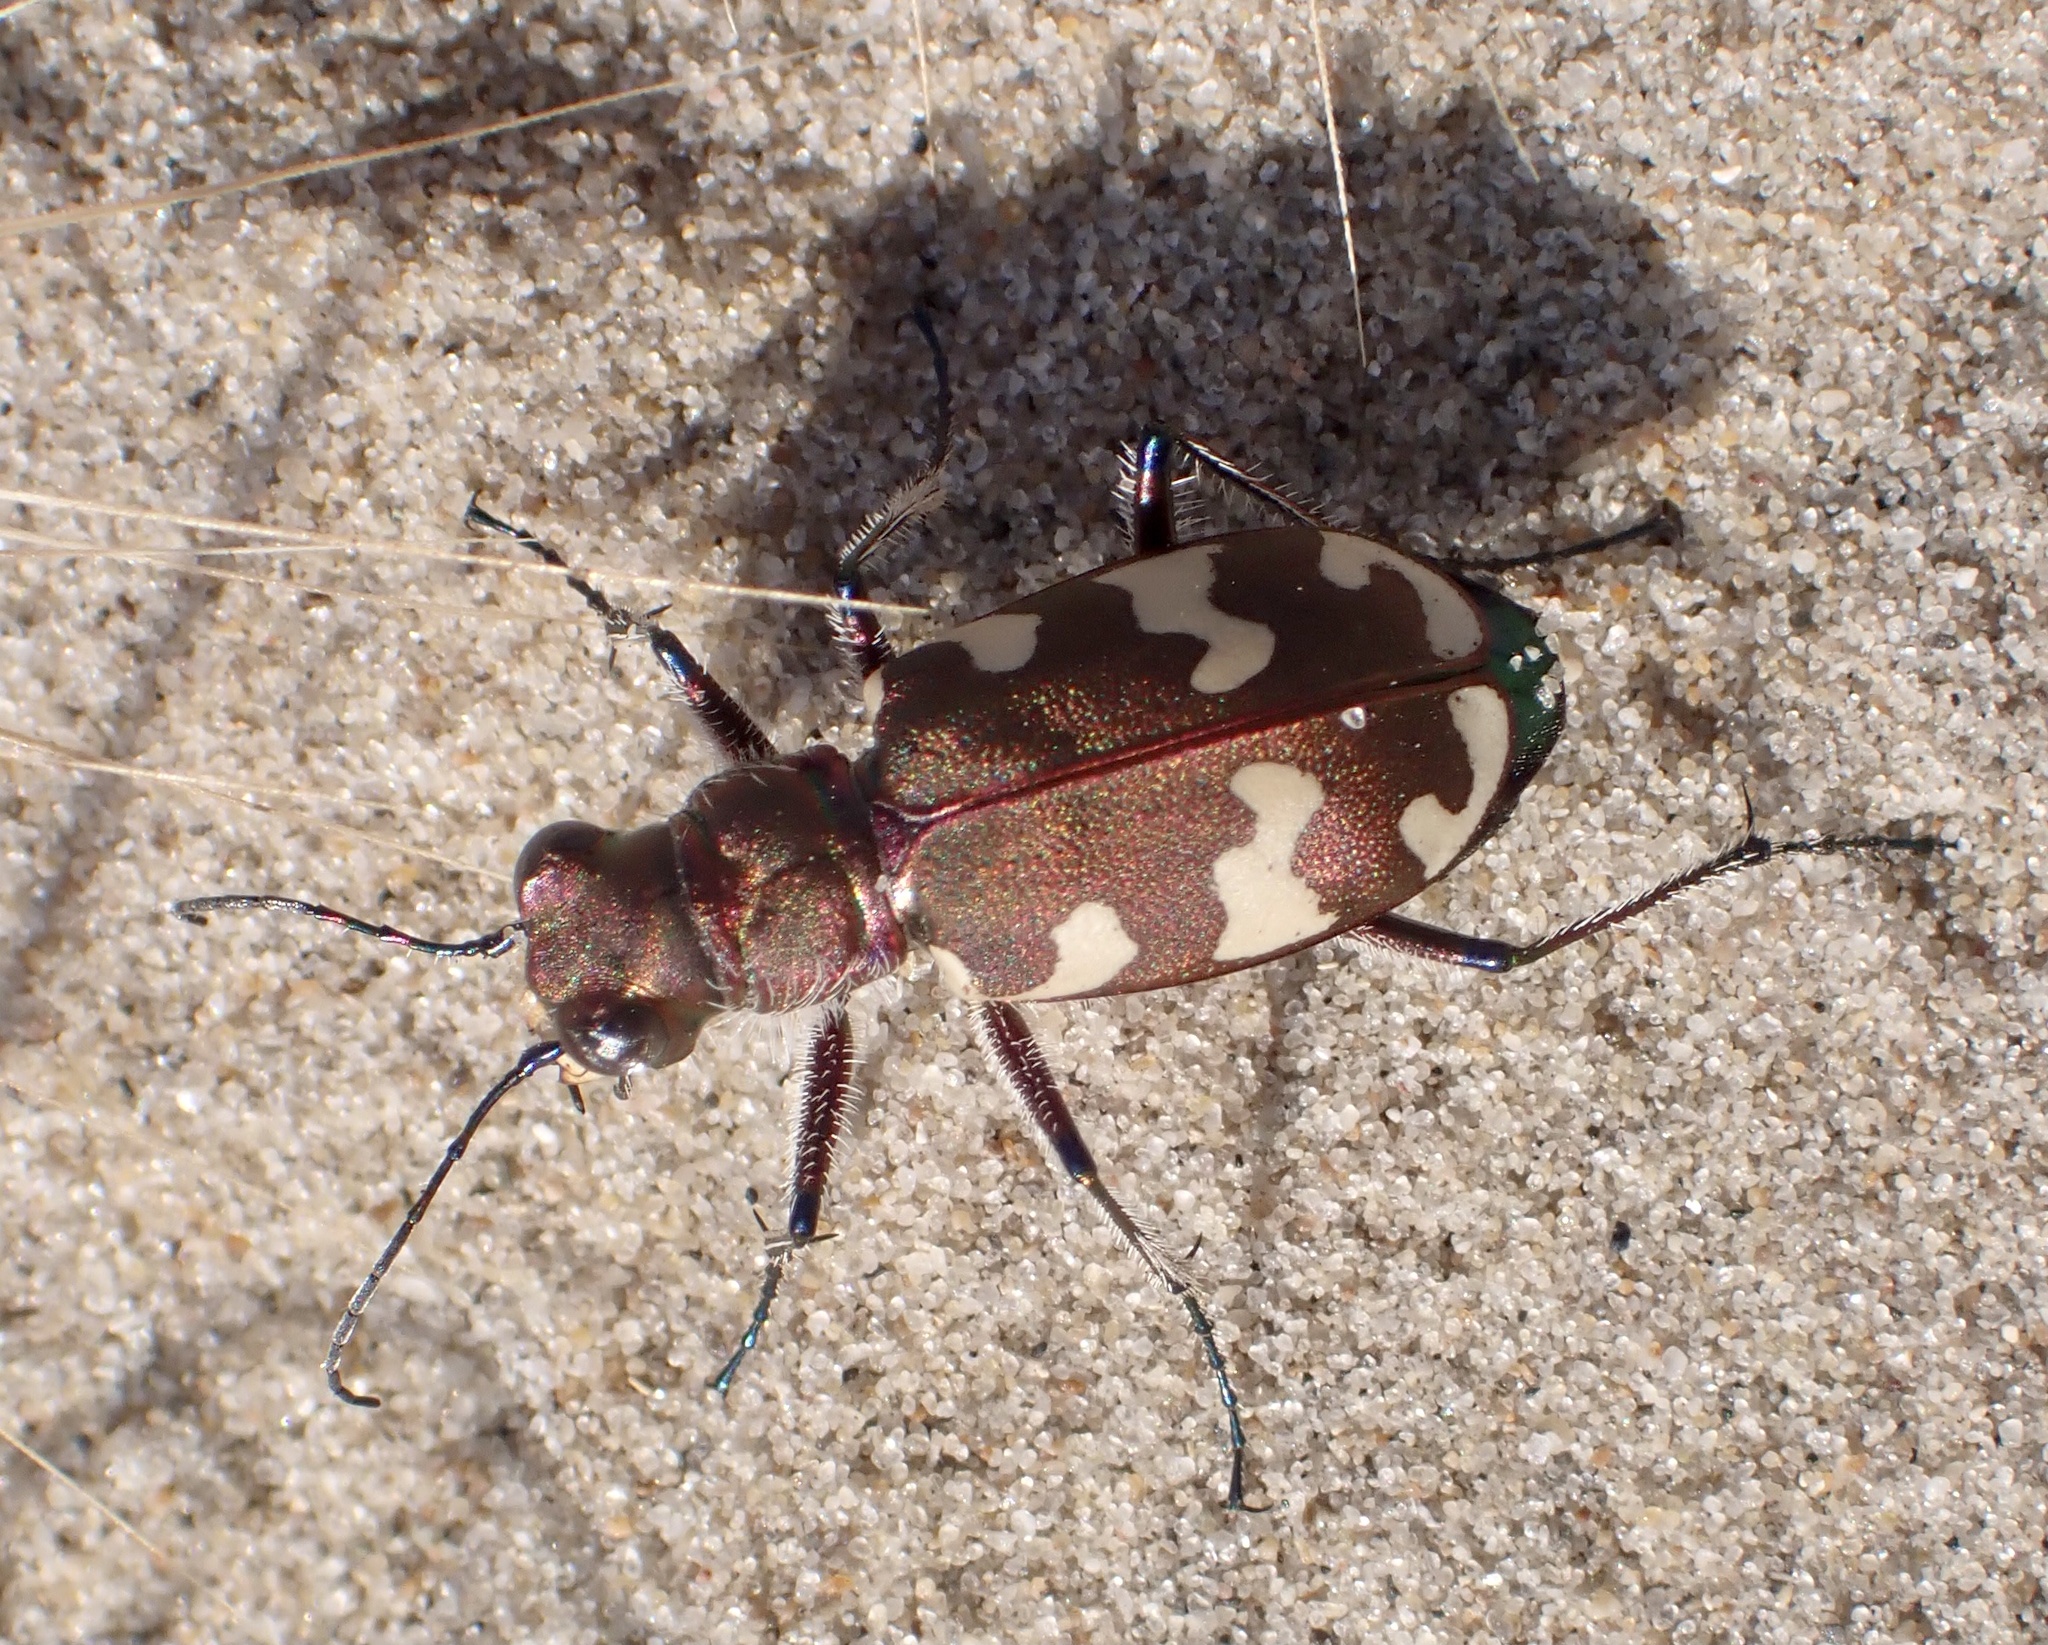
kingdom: Animalia
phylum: Arthropoda
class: Insecta
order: Coleoptera
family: Carabidae
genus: Cicindela
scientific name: Cicindela hybrida
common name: Northern dune tiger beetle
